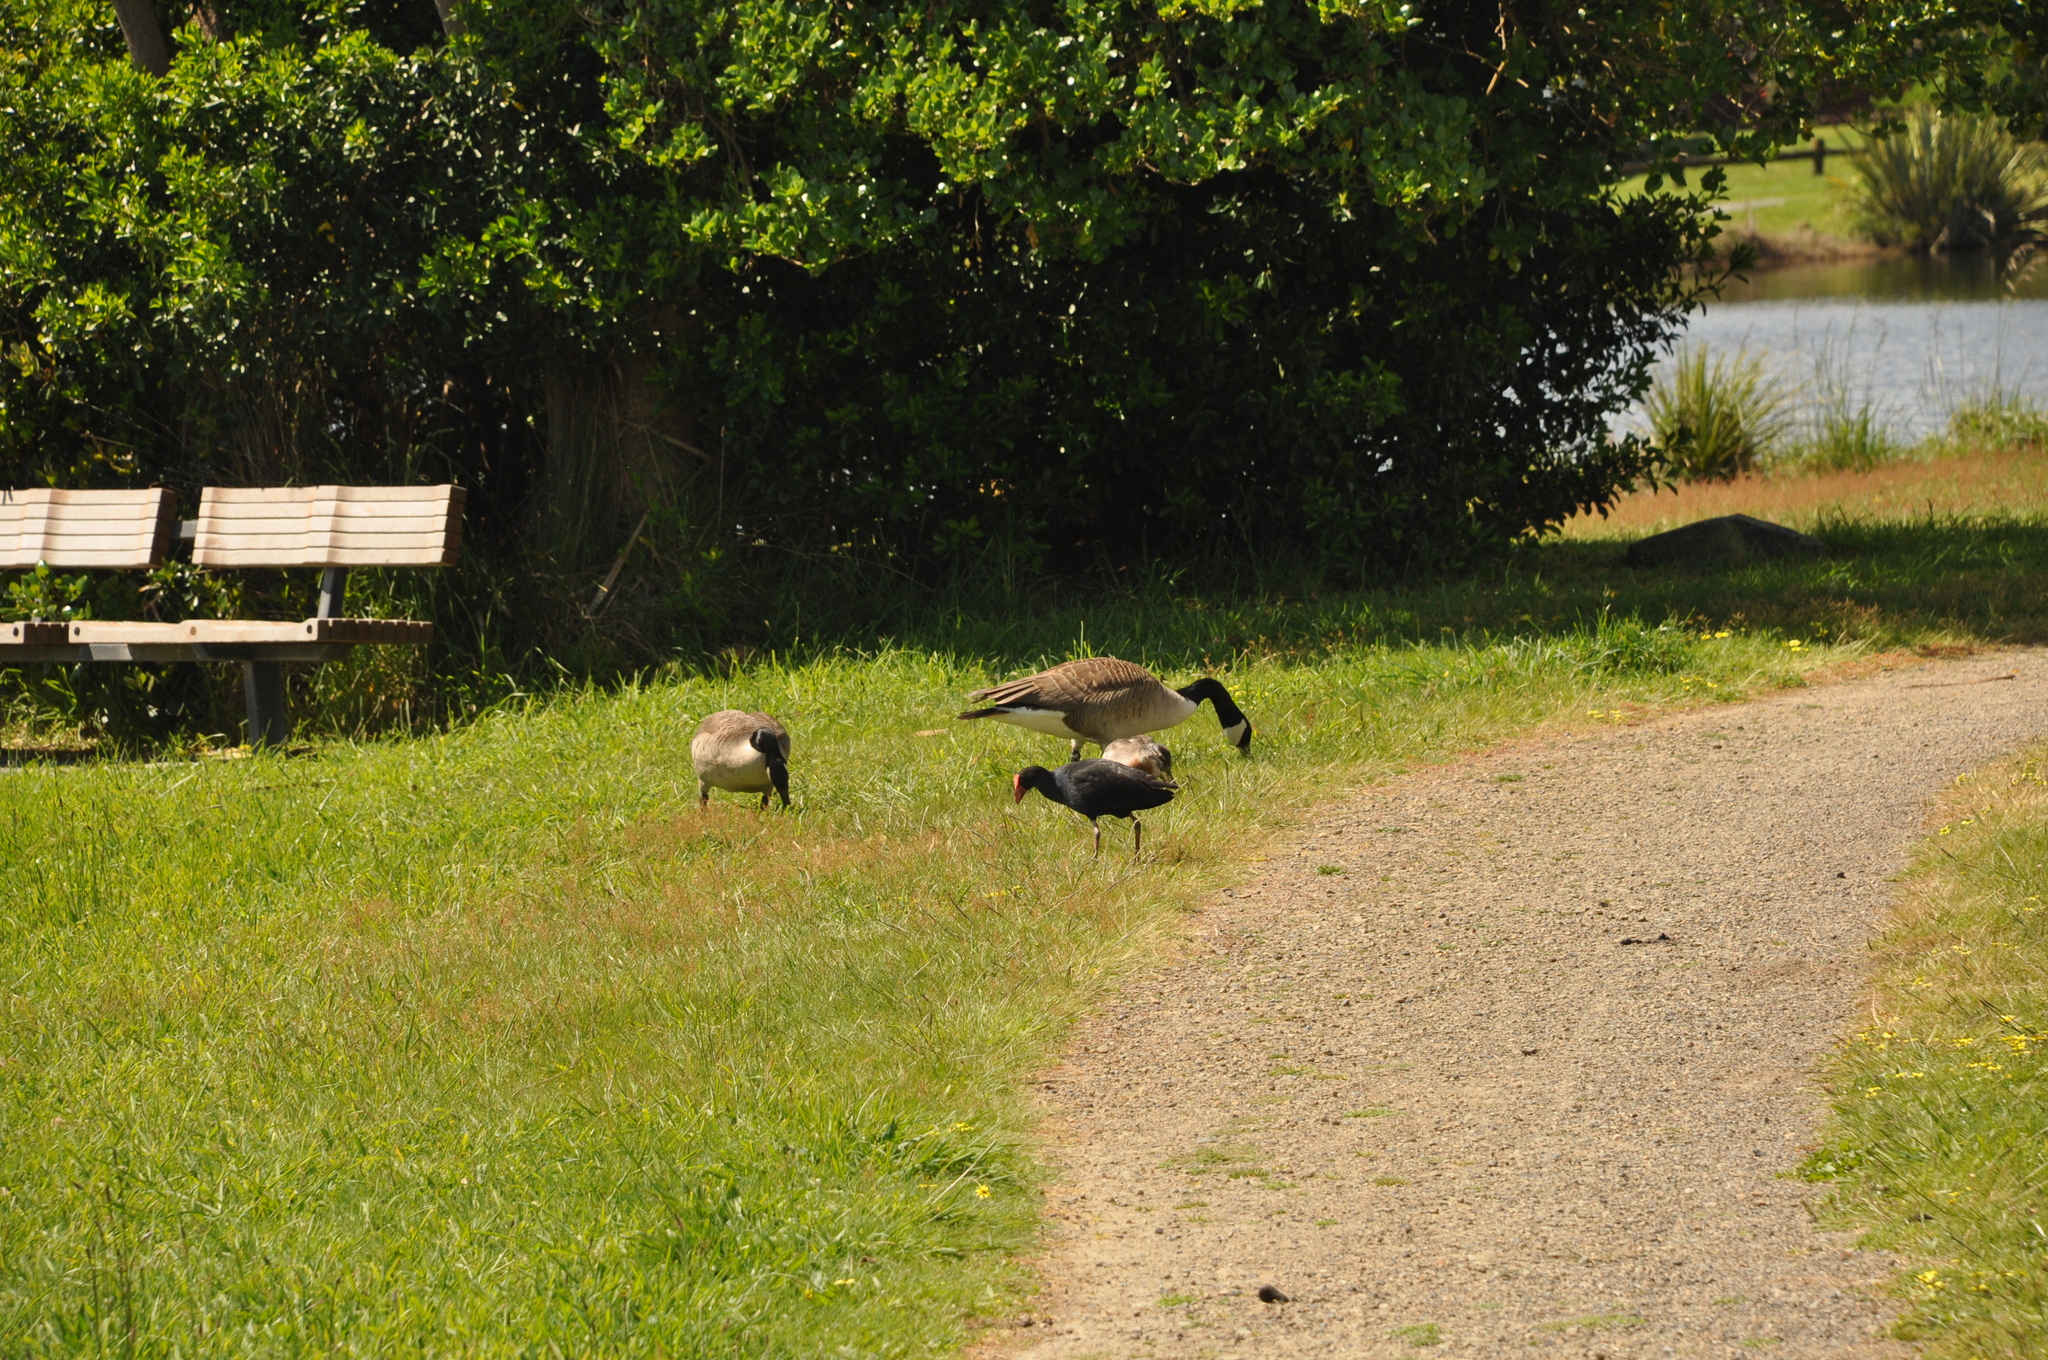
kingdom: Animalia
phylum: Chordata
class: Aves
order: Anseriformes
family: Anatidae
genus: Branta
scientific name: Branta canadensis
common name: Canada goose
